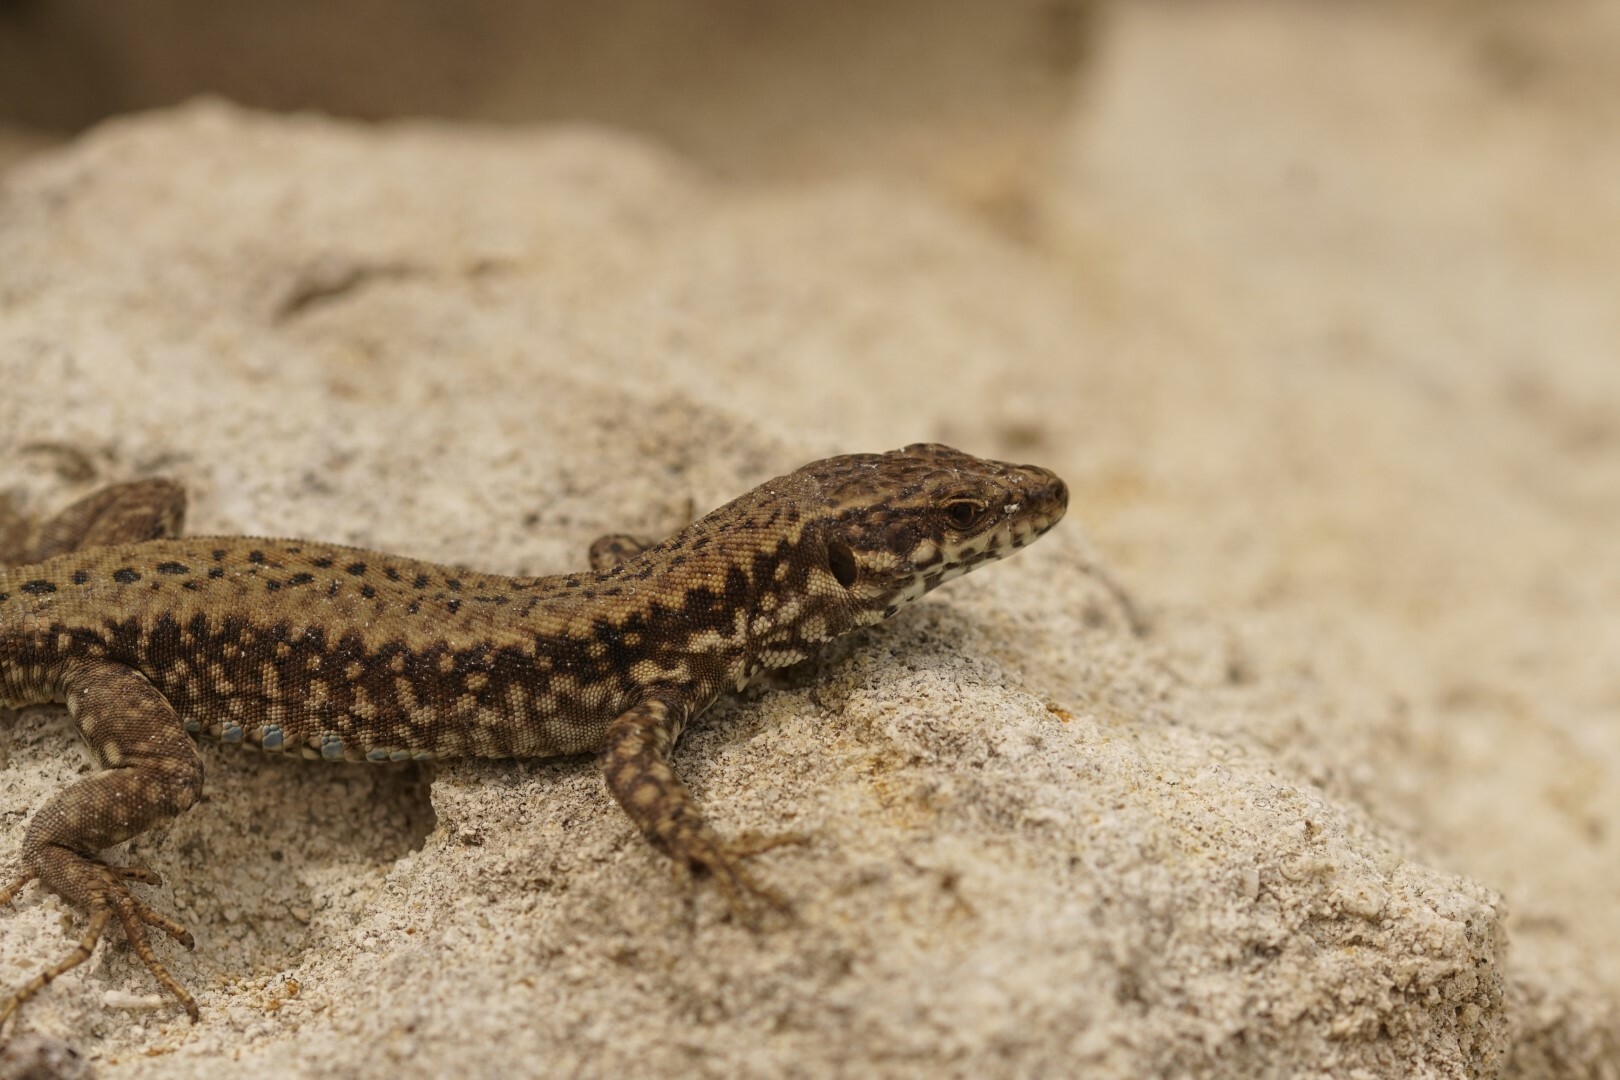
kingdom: Animalia
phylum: Chordata
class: Squamata
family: Lacertidae
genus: Podarcis
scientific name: Podarcis muralis
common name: Common wall lizard
